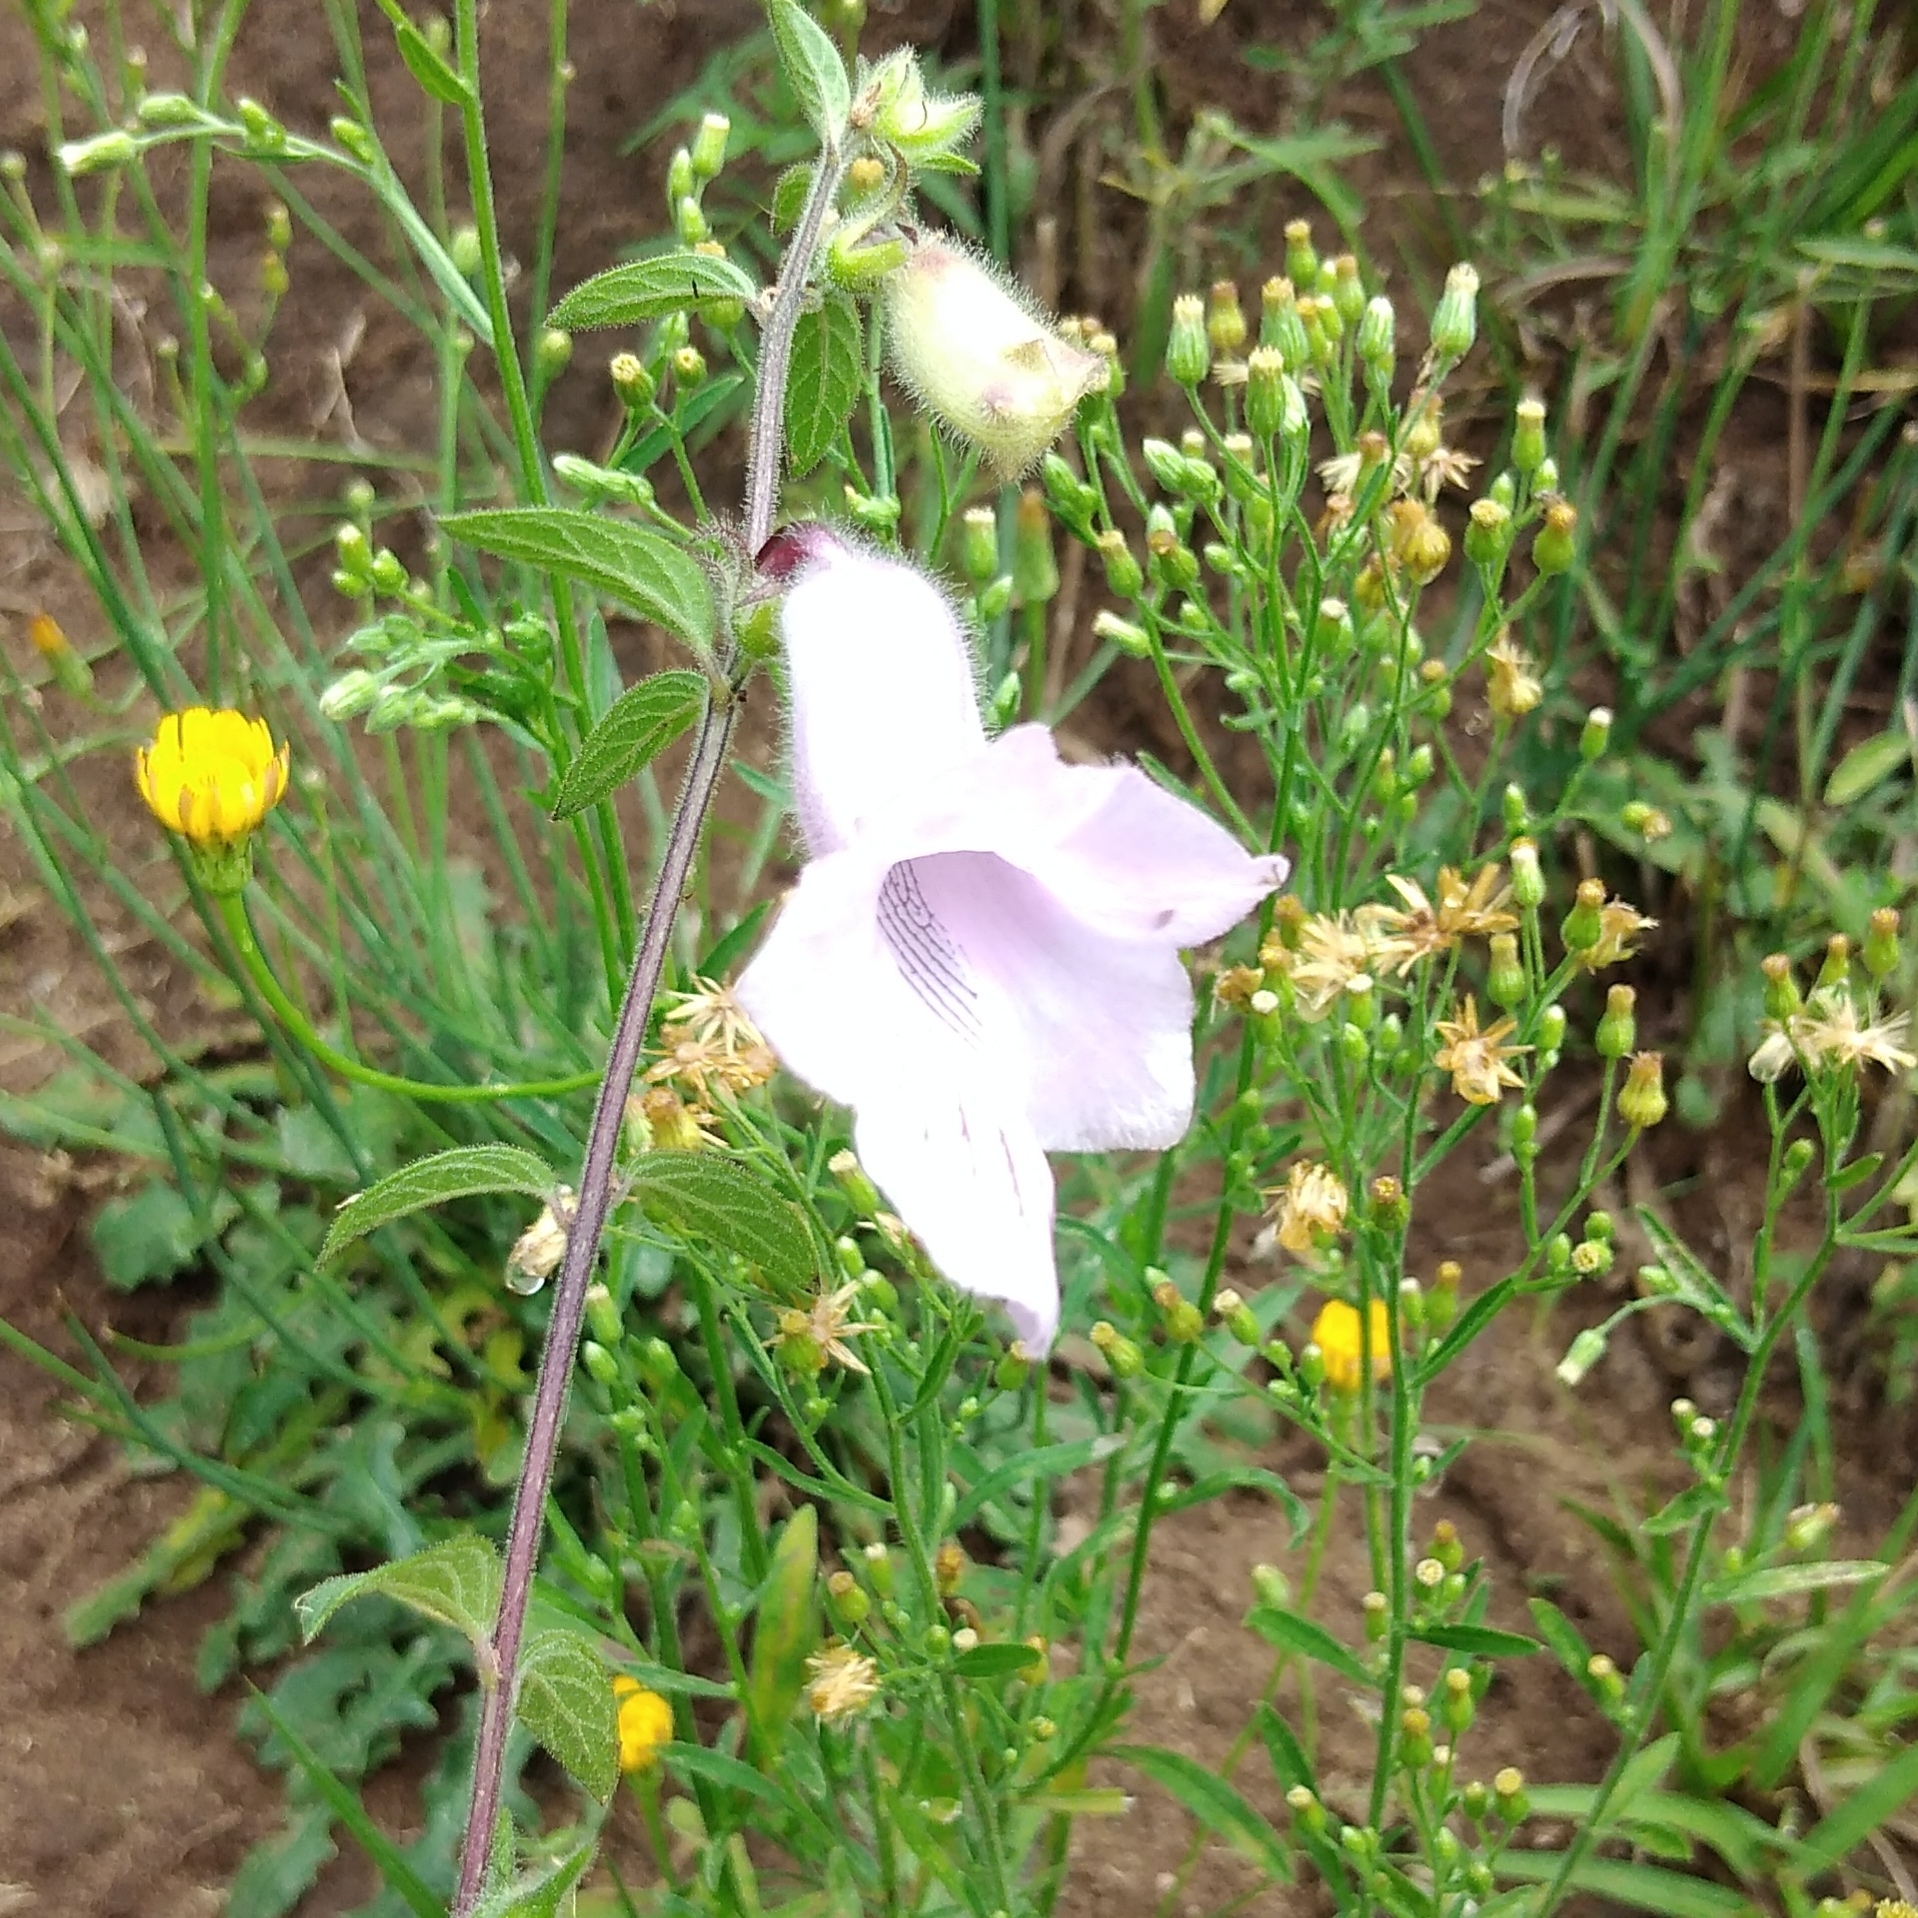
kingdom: Plantae
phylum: Tracheophyta
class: Magnoliopsida
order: Lamiales
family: Pedaliaceae
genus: Sesamum
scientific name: Sesamum trilobum
